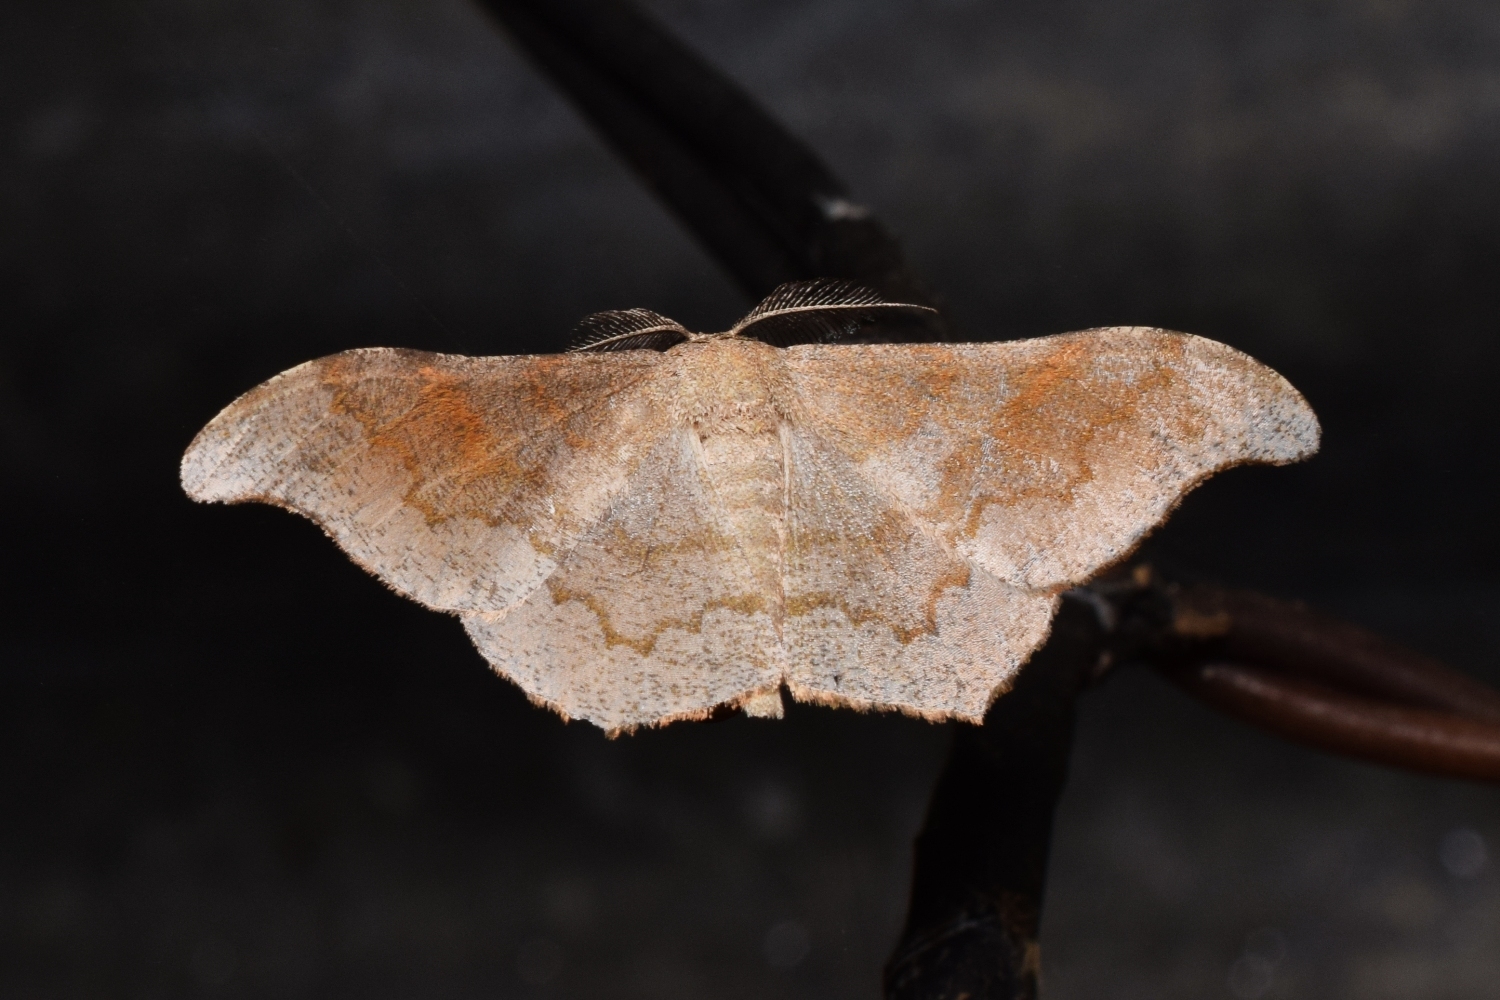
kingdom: Animalia
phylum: Arthropoda
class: Insecta
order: Lepidoptera
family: Geometridae
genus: Hyposidra
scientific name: Hyposidra talaca
